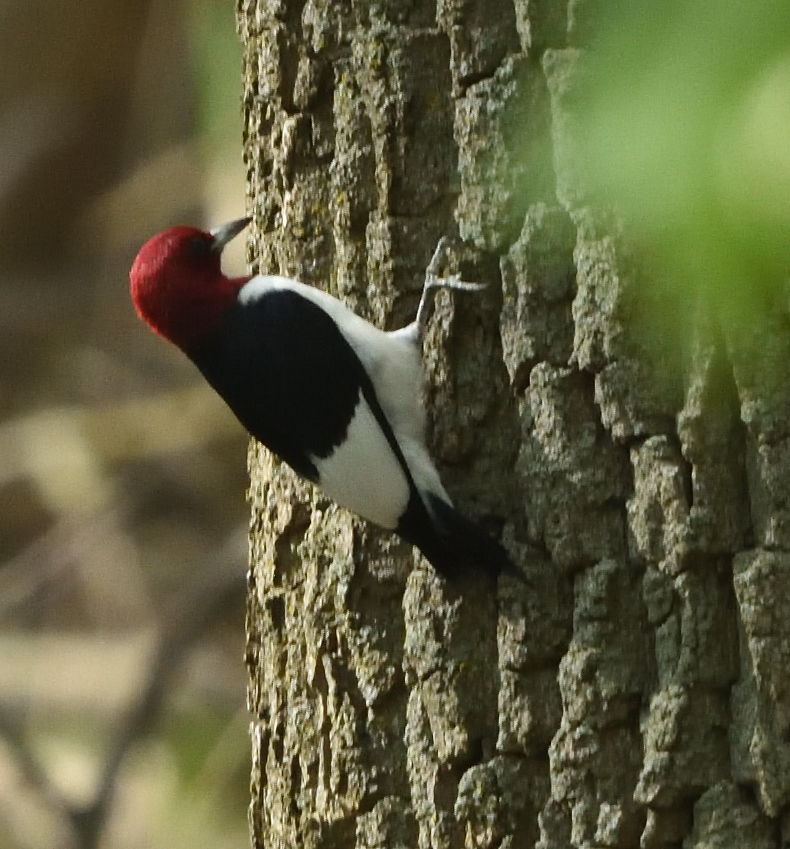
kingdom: Animalia
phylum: Chordata
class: Aves
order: Piciformes
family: Picidae
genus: Melanerpes
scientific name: Melanerpes erythrocephalus
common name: Red-headed woodpecker
